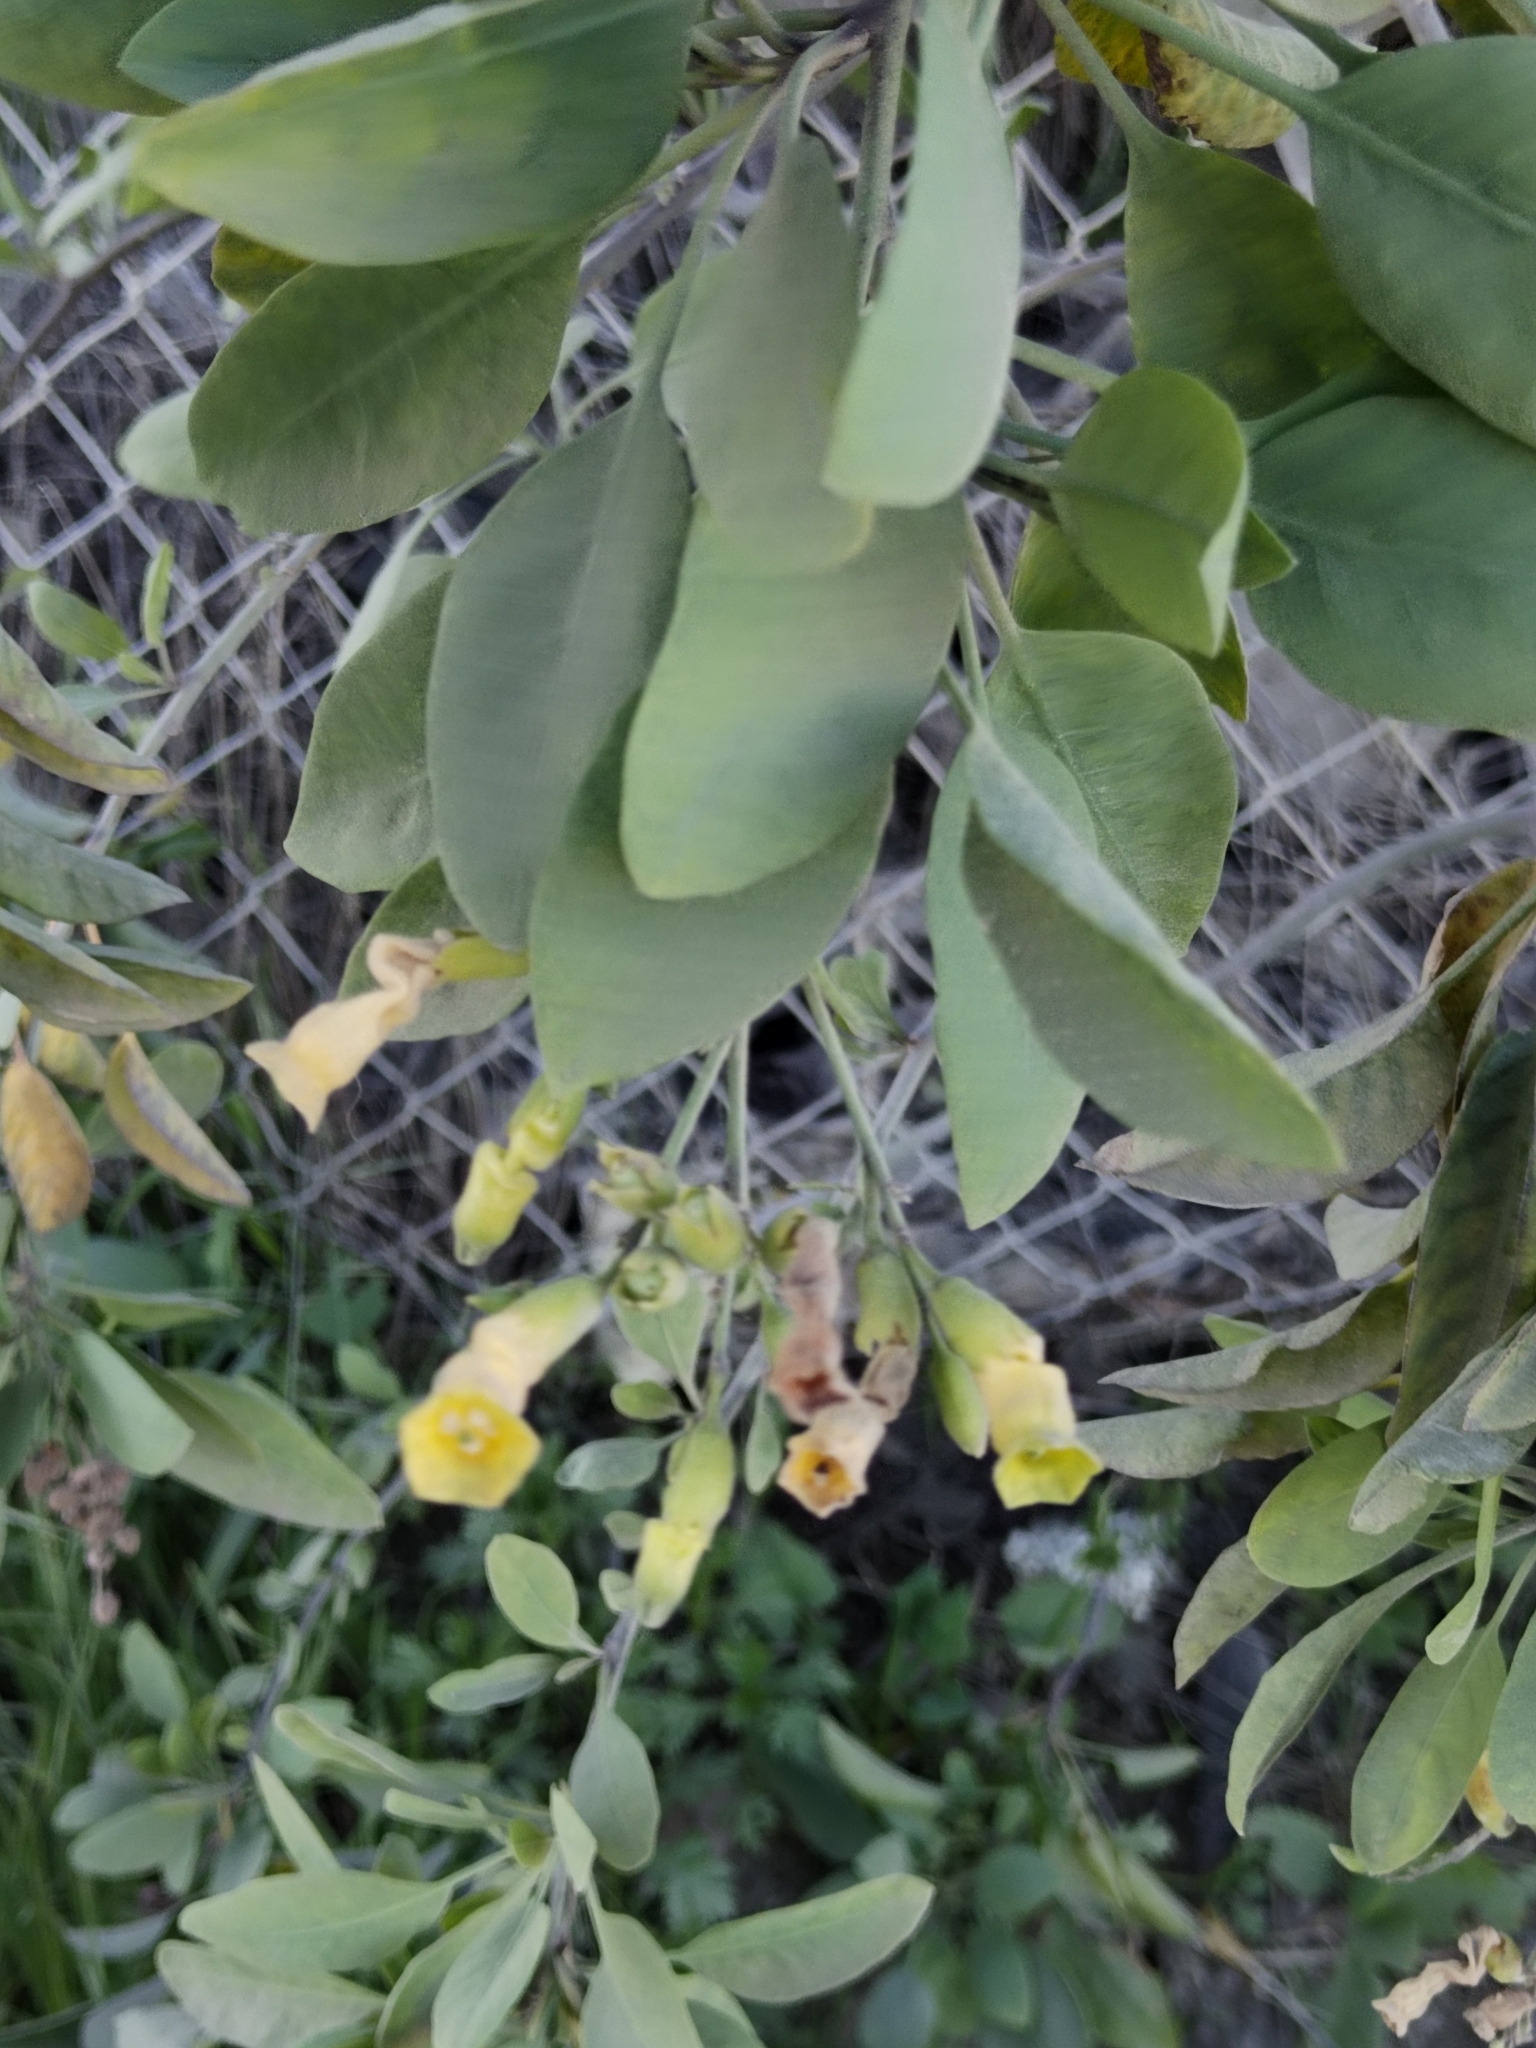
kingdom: Plantae
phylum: Tracheophyta
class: Magnoliopsida
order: Solanales
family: Solanaceae
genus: Nicotiana
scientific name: Nicotiana glauca
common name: Tree tobacco
